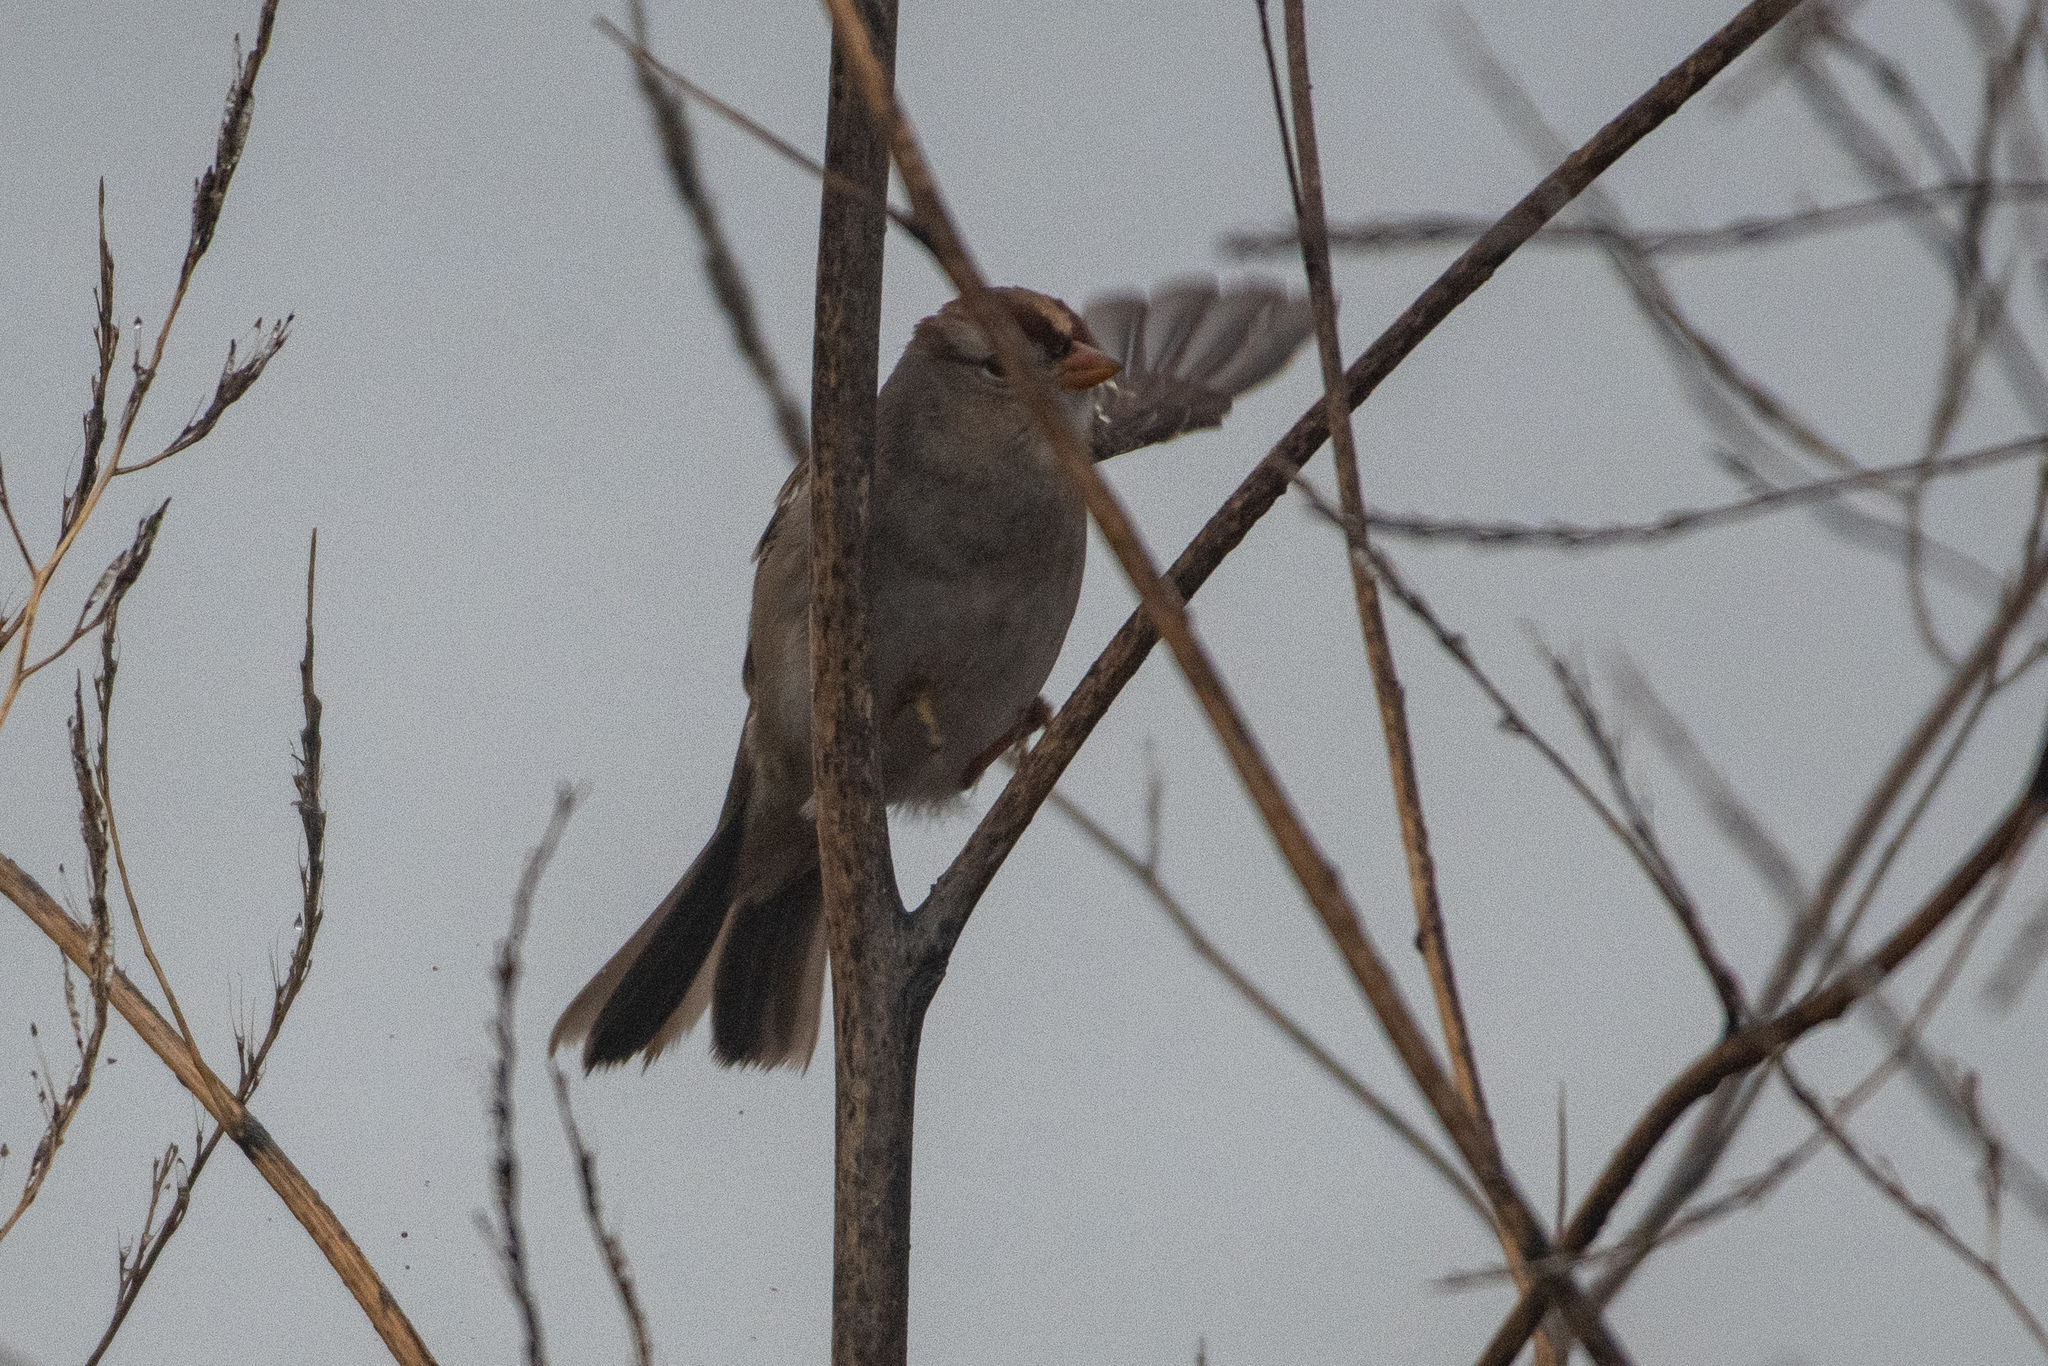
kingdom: Animalia
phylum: Chordata
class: Aves
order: Passeriformes
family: Passerellidae
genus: Zonotrichia
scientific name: Zonotrichia leucophrys
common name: White-crowned sparrow
